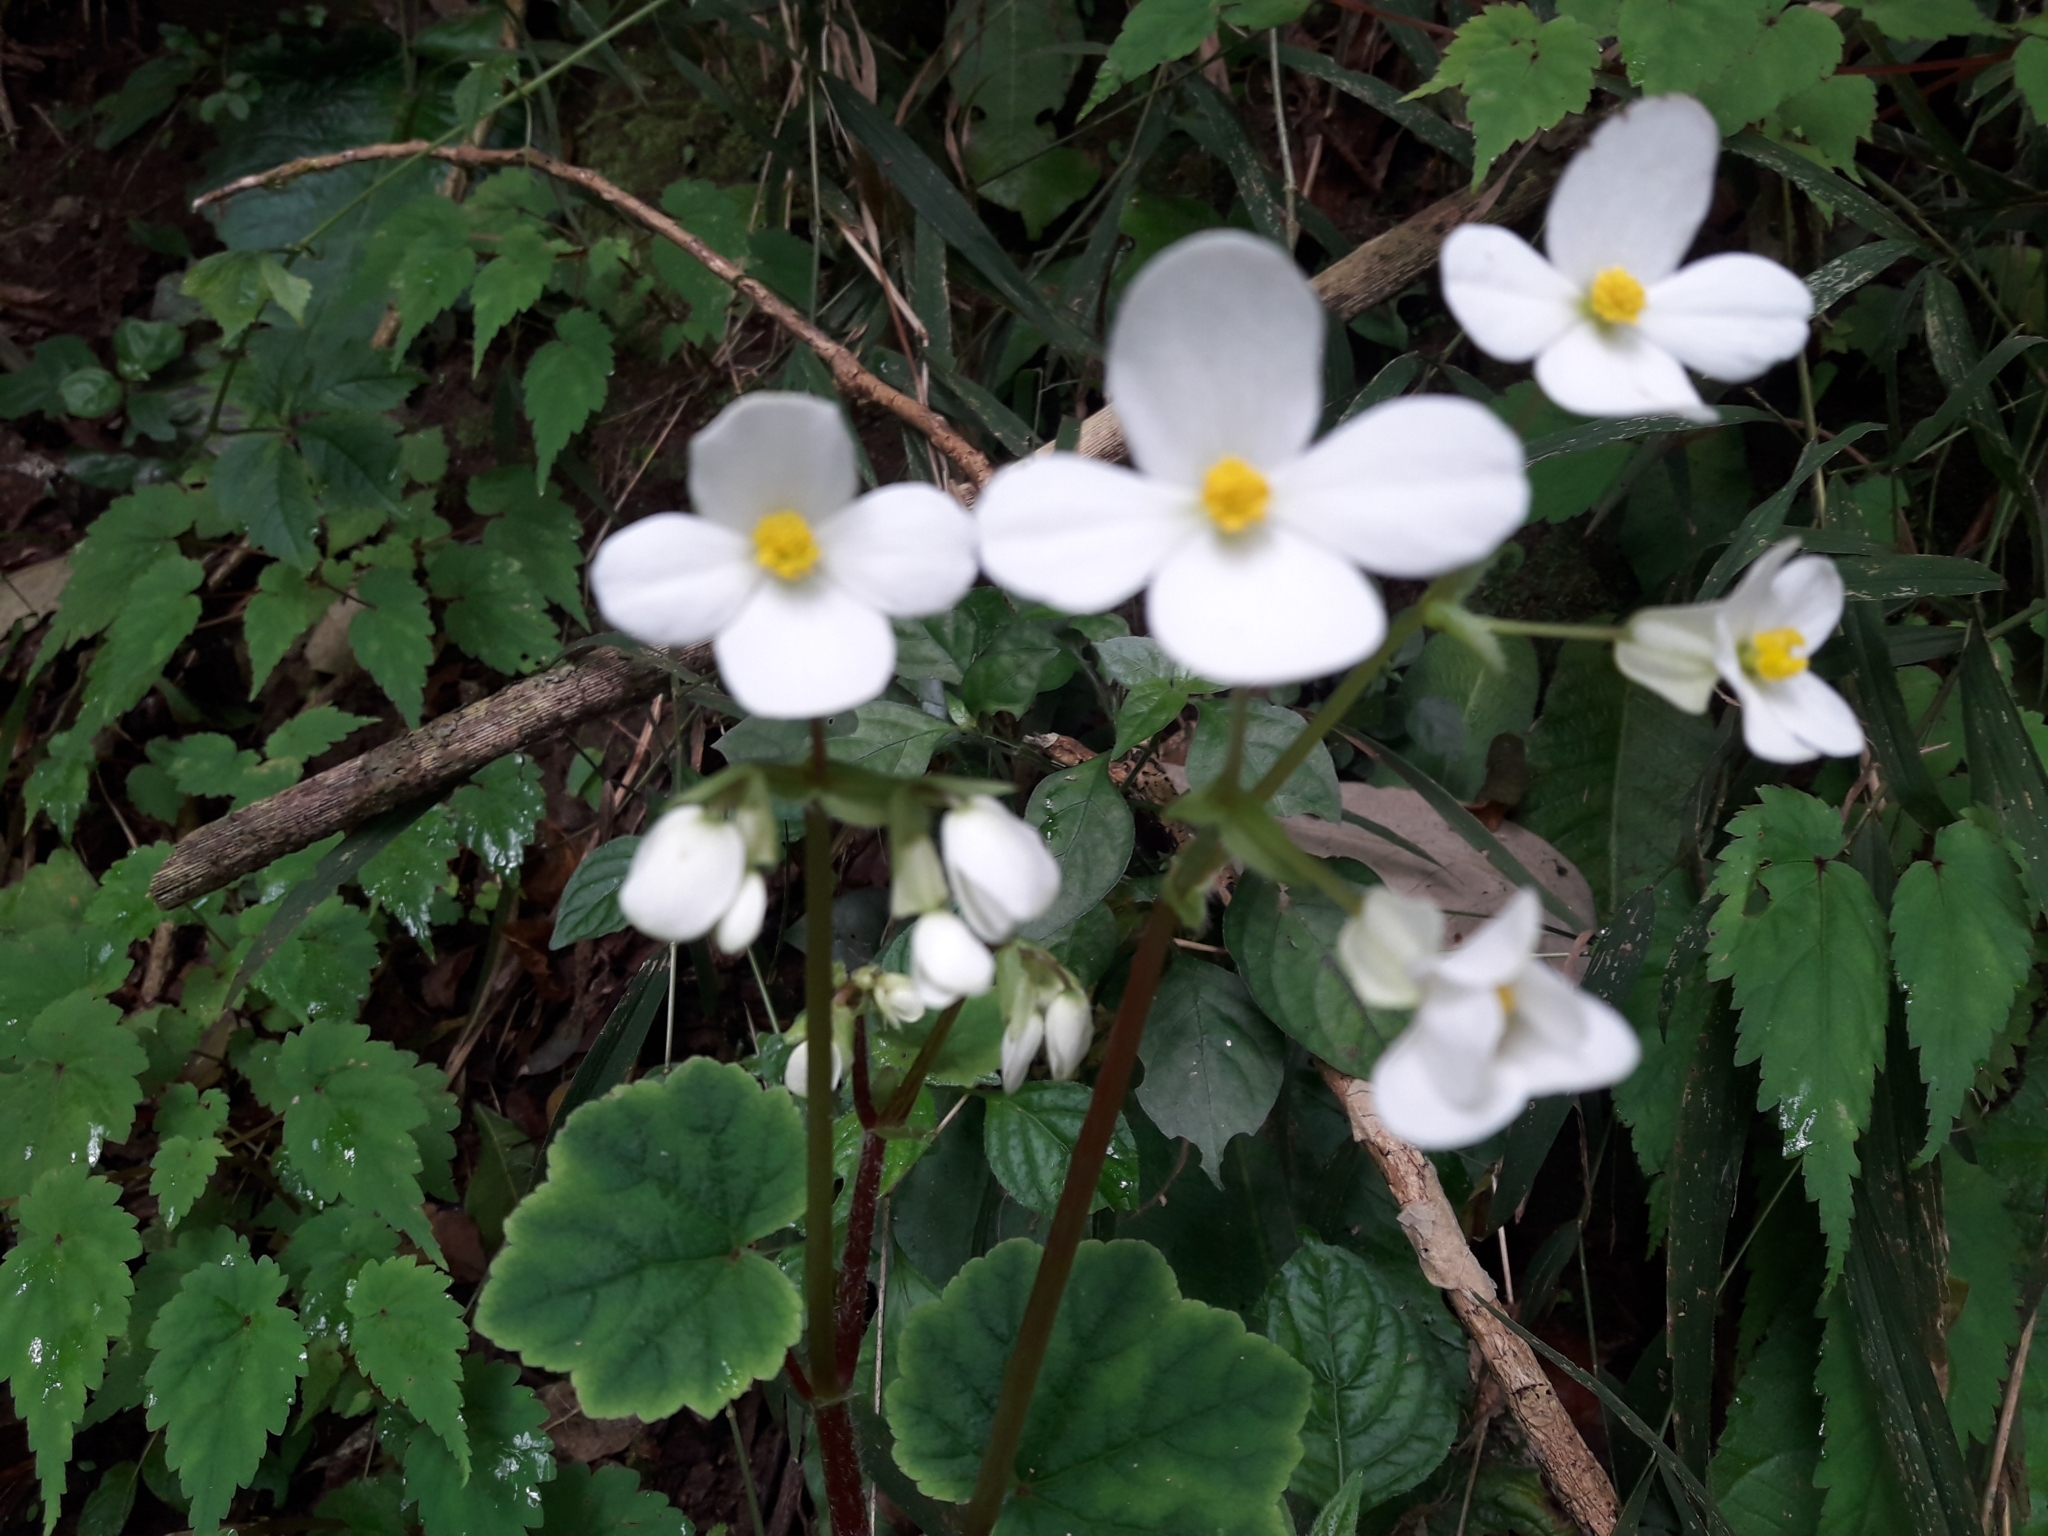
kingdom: Plantae
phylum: Tracheophyta
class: Magnoliopsida
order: Cucurbitales
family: Begoniaceae
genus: Begonia
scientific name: Begonia geranioides
